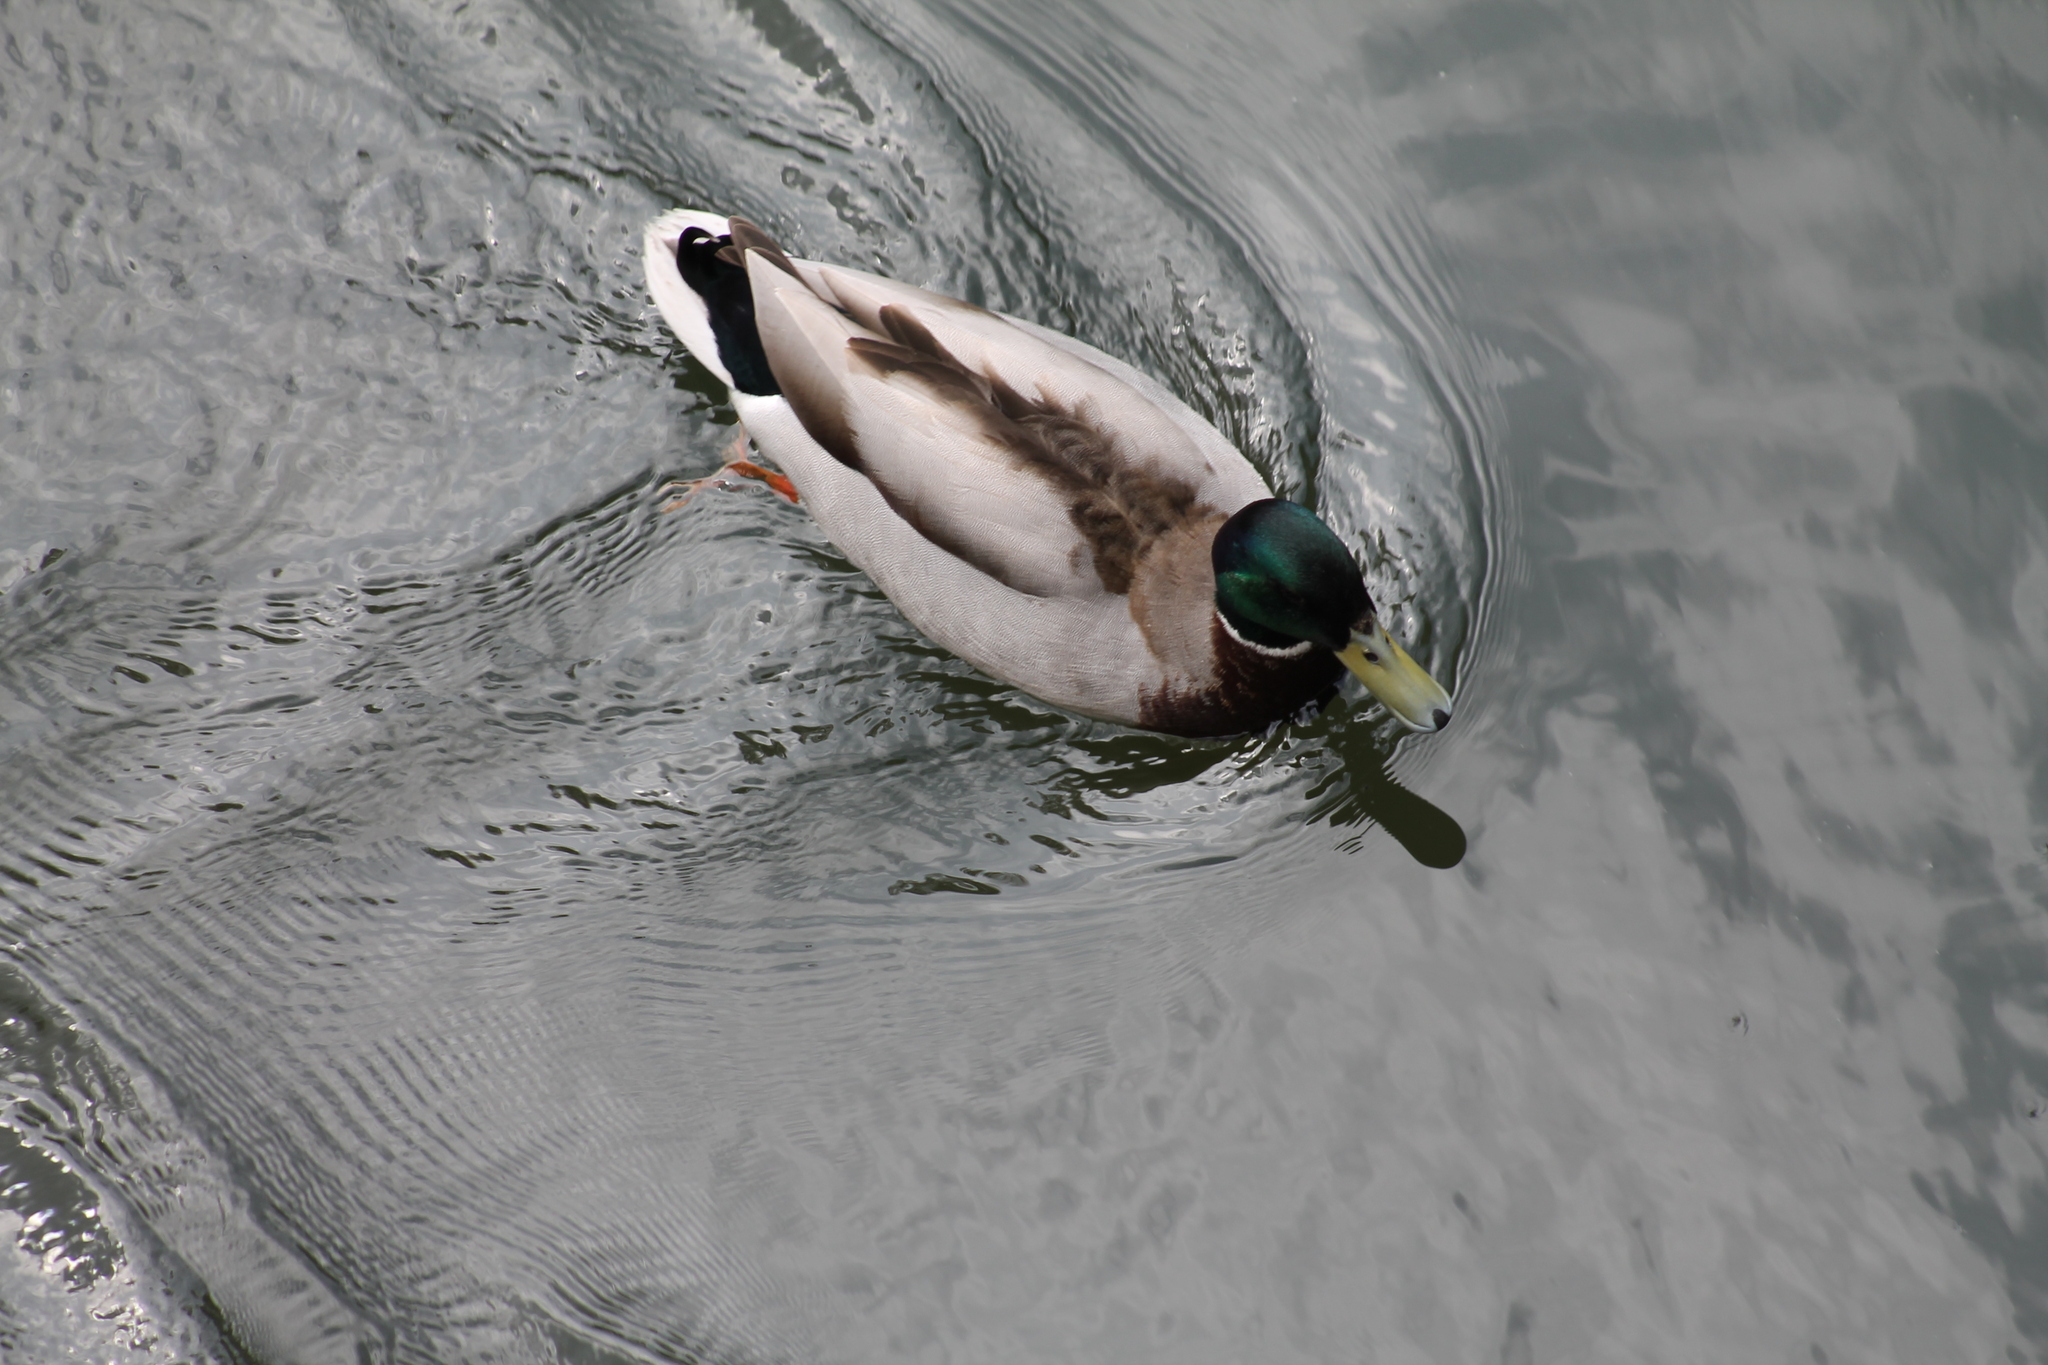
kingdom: Animalia
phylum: Chordata
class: Aves
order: Anseriformes
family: Anatidae
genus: Anas
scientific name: Anas platyrhynchos
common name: Mallard
